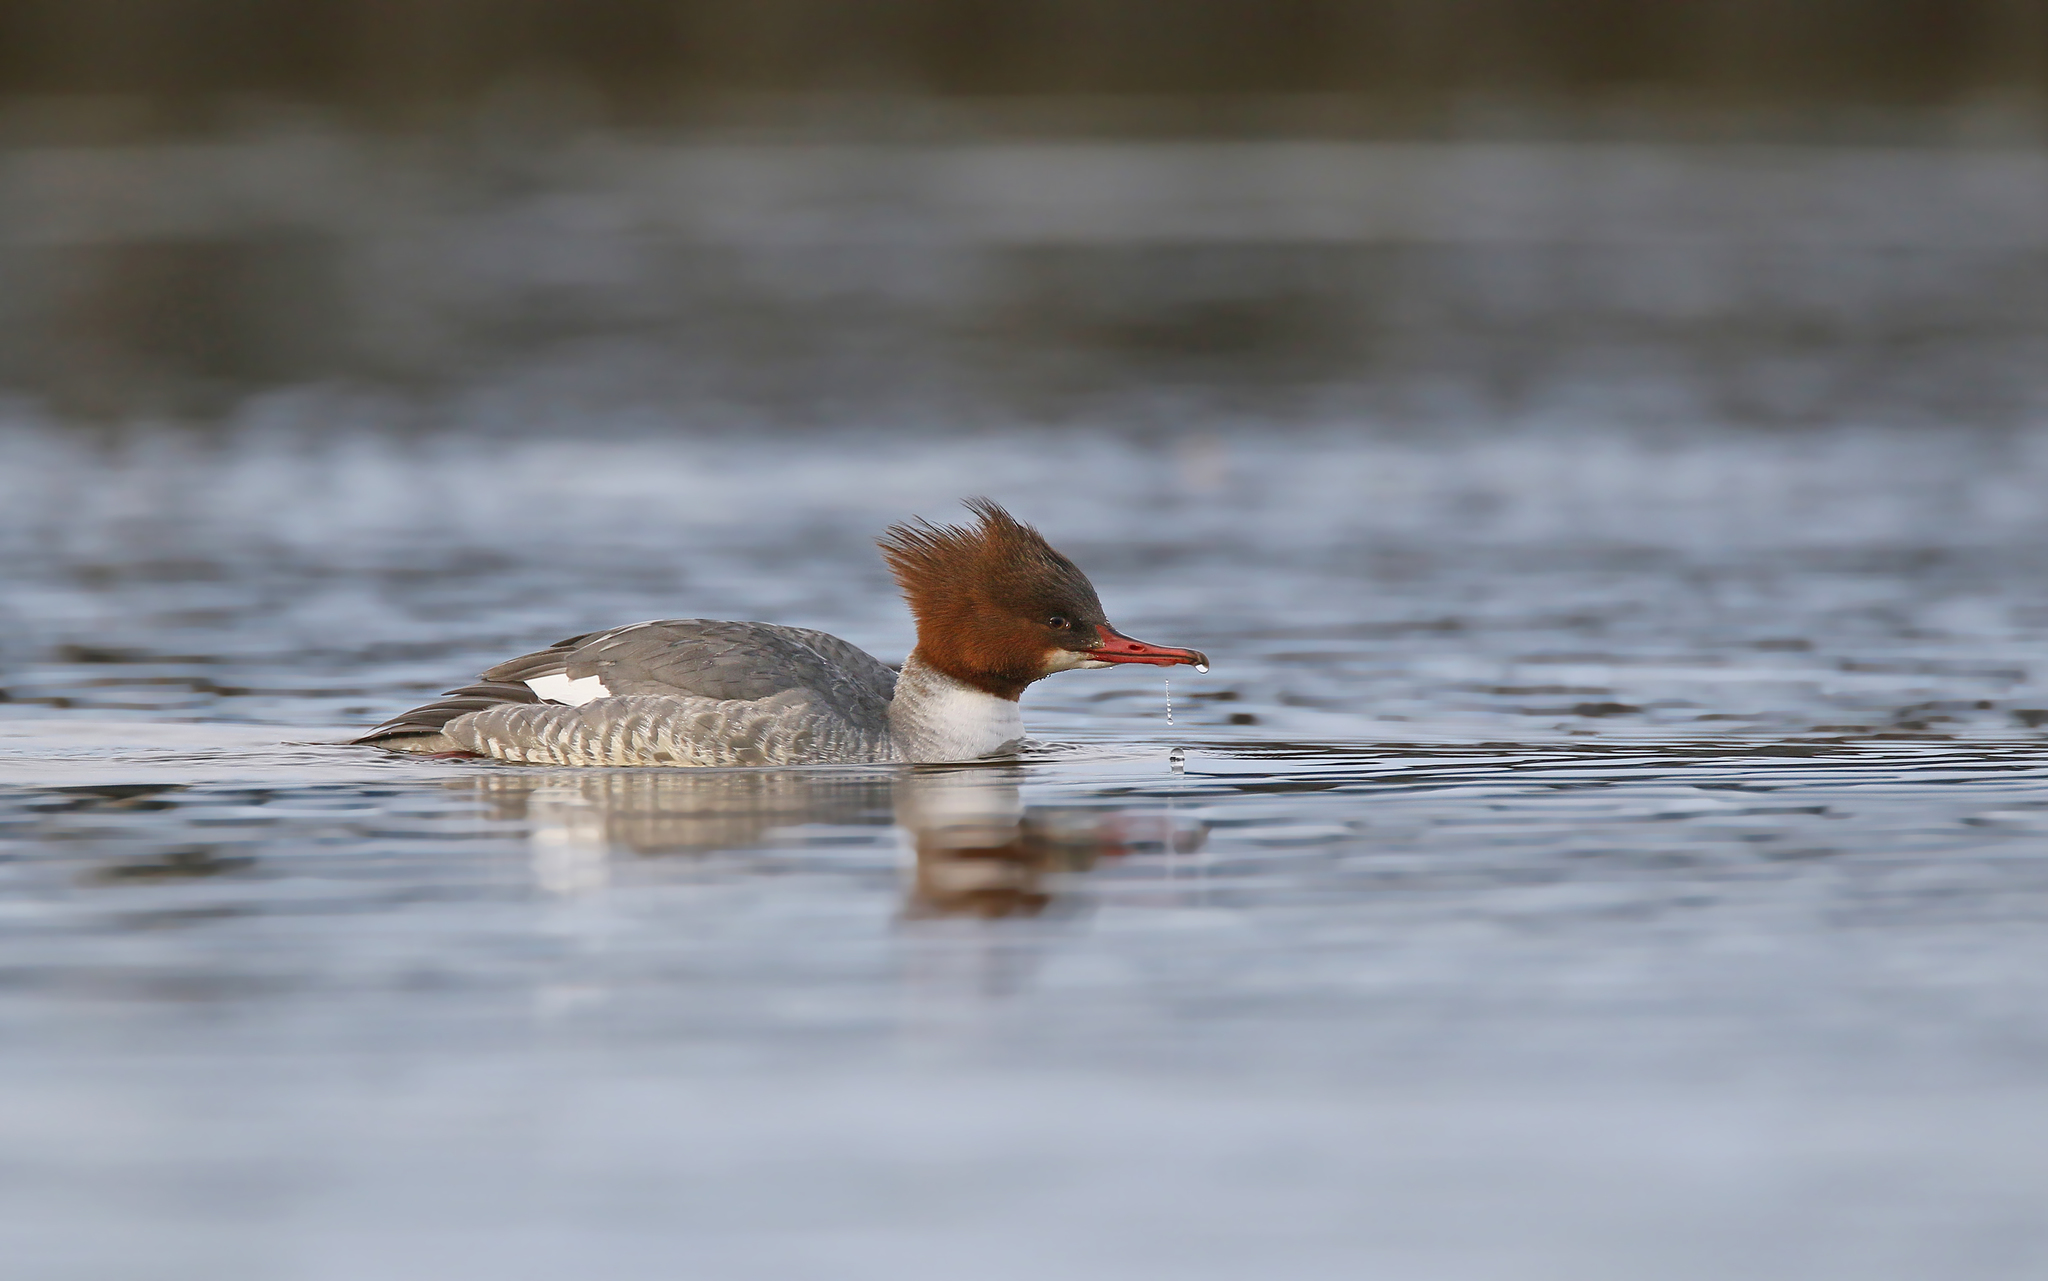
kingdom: Animalia
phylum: Chordata
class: Aves
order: Anseriformes
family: Anatidae
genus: Mergus
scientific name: Mergus merganser
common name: Common merganser
